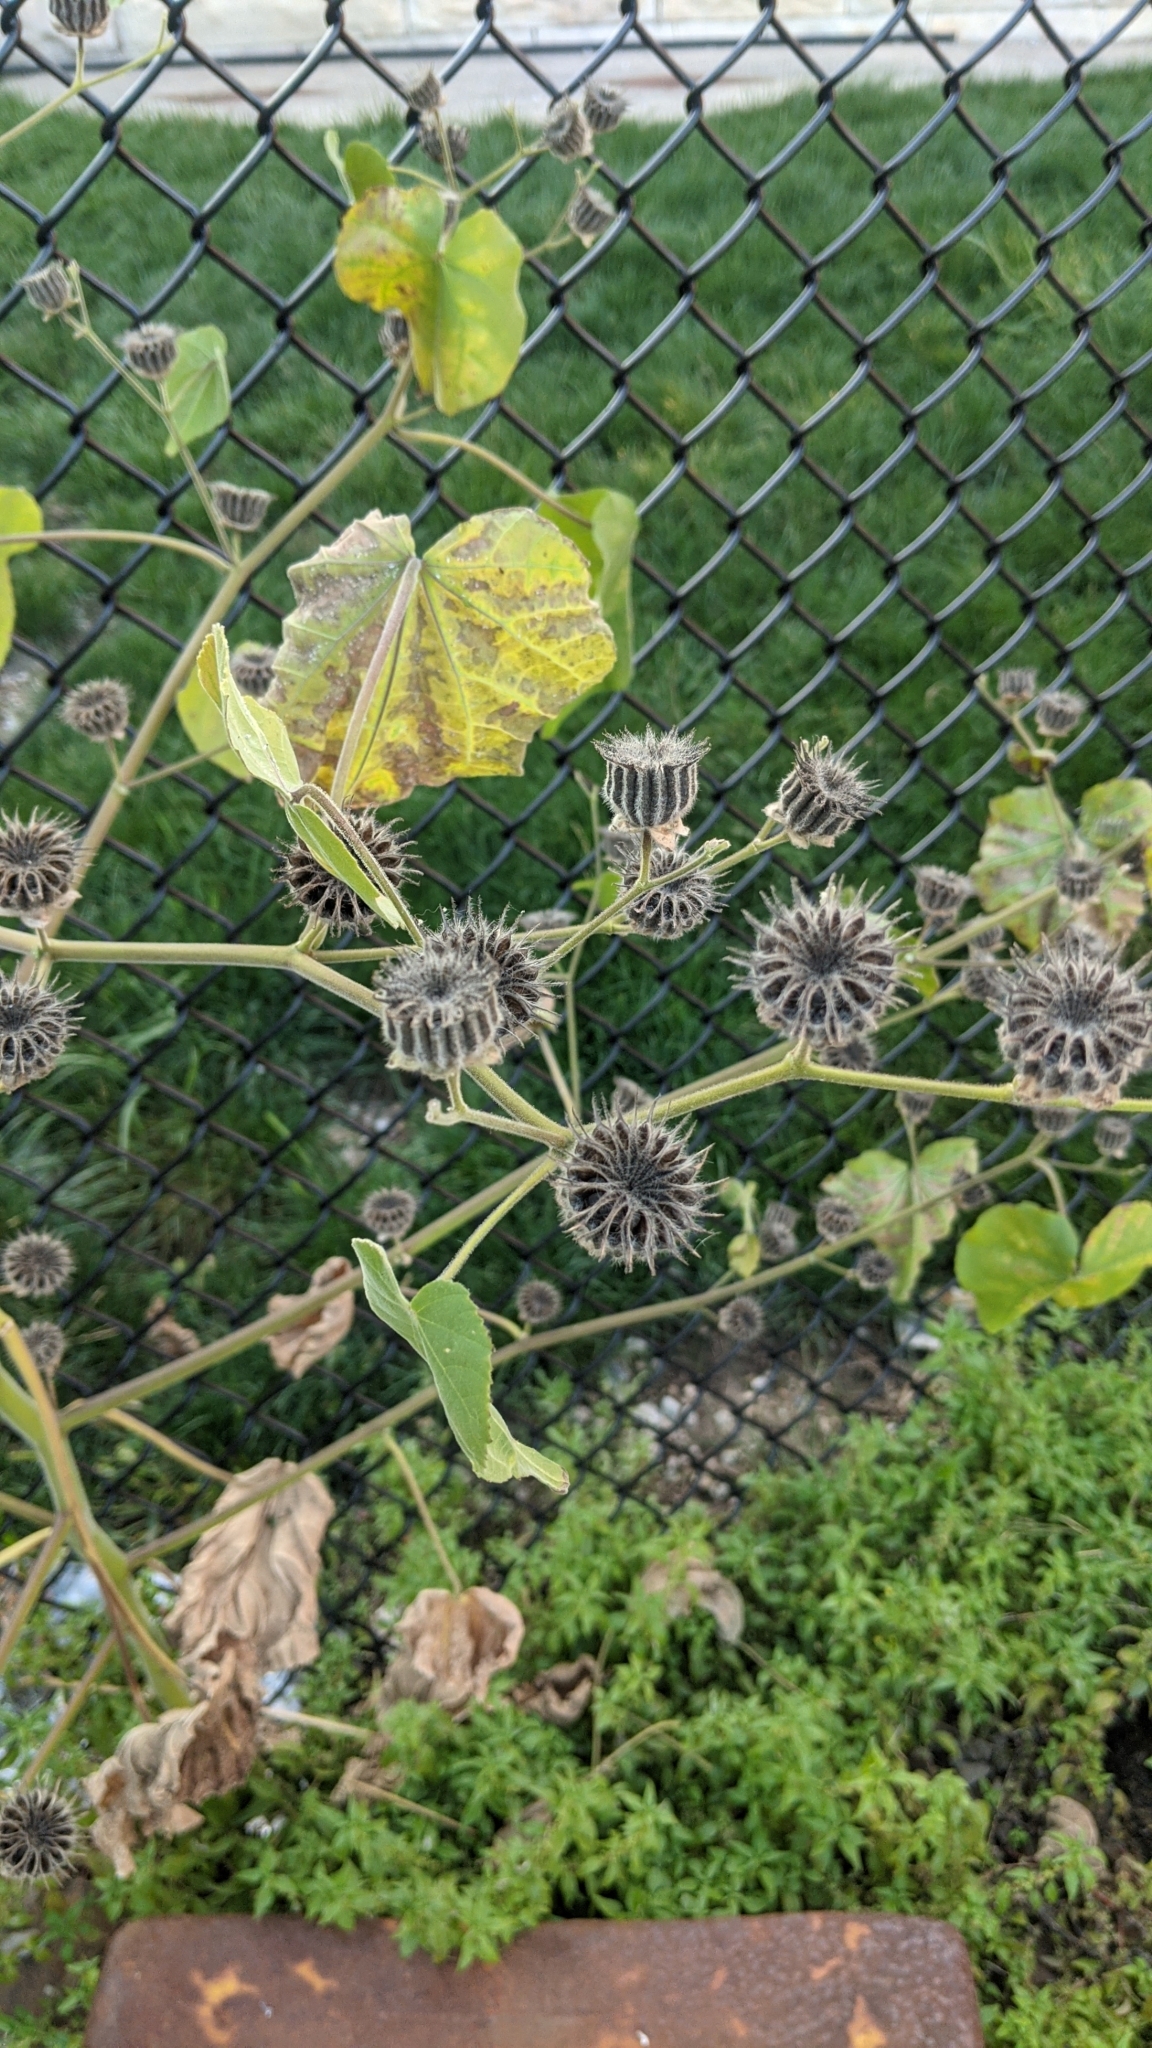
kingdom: Plantae
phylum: Tracheophyta
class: Magnoliopsida
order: Malvales
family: Malvaceae
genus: Abutilon
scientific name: Abutilon theophrasti
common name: Velvetleaf
